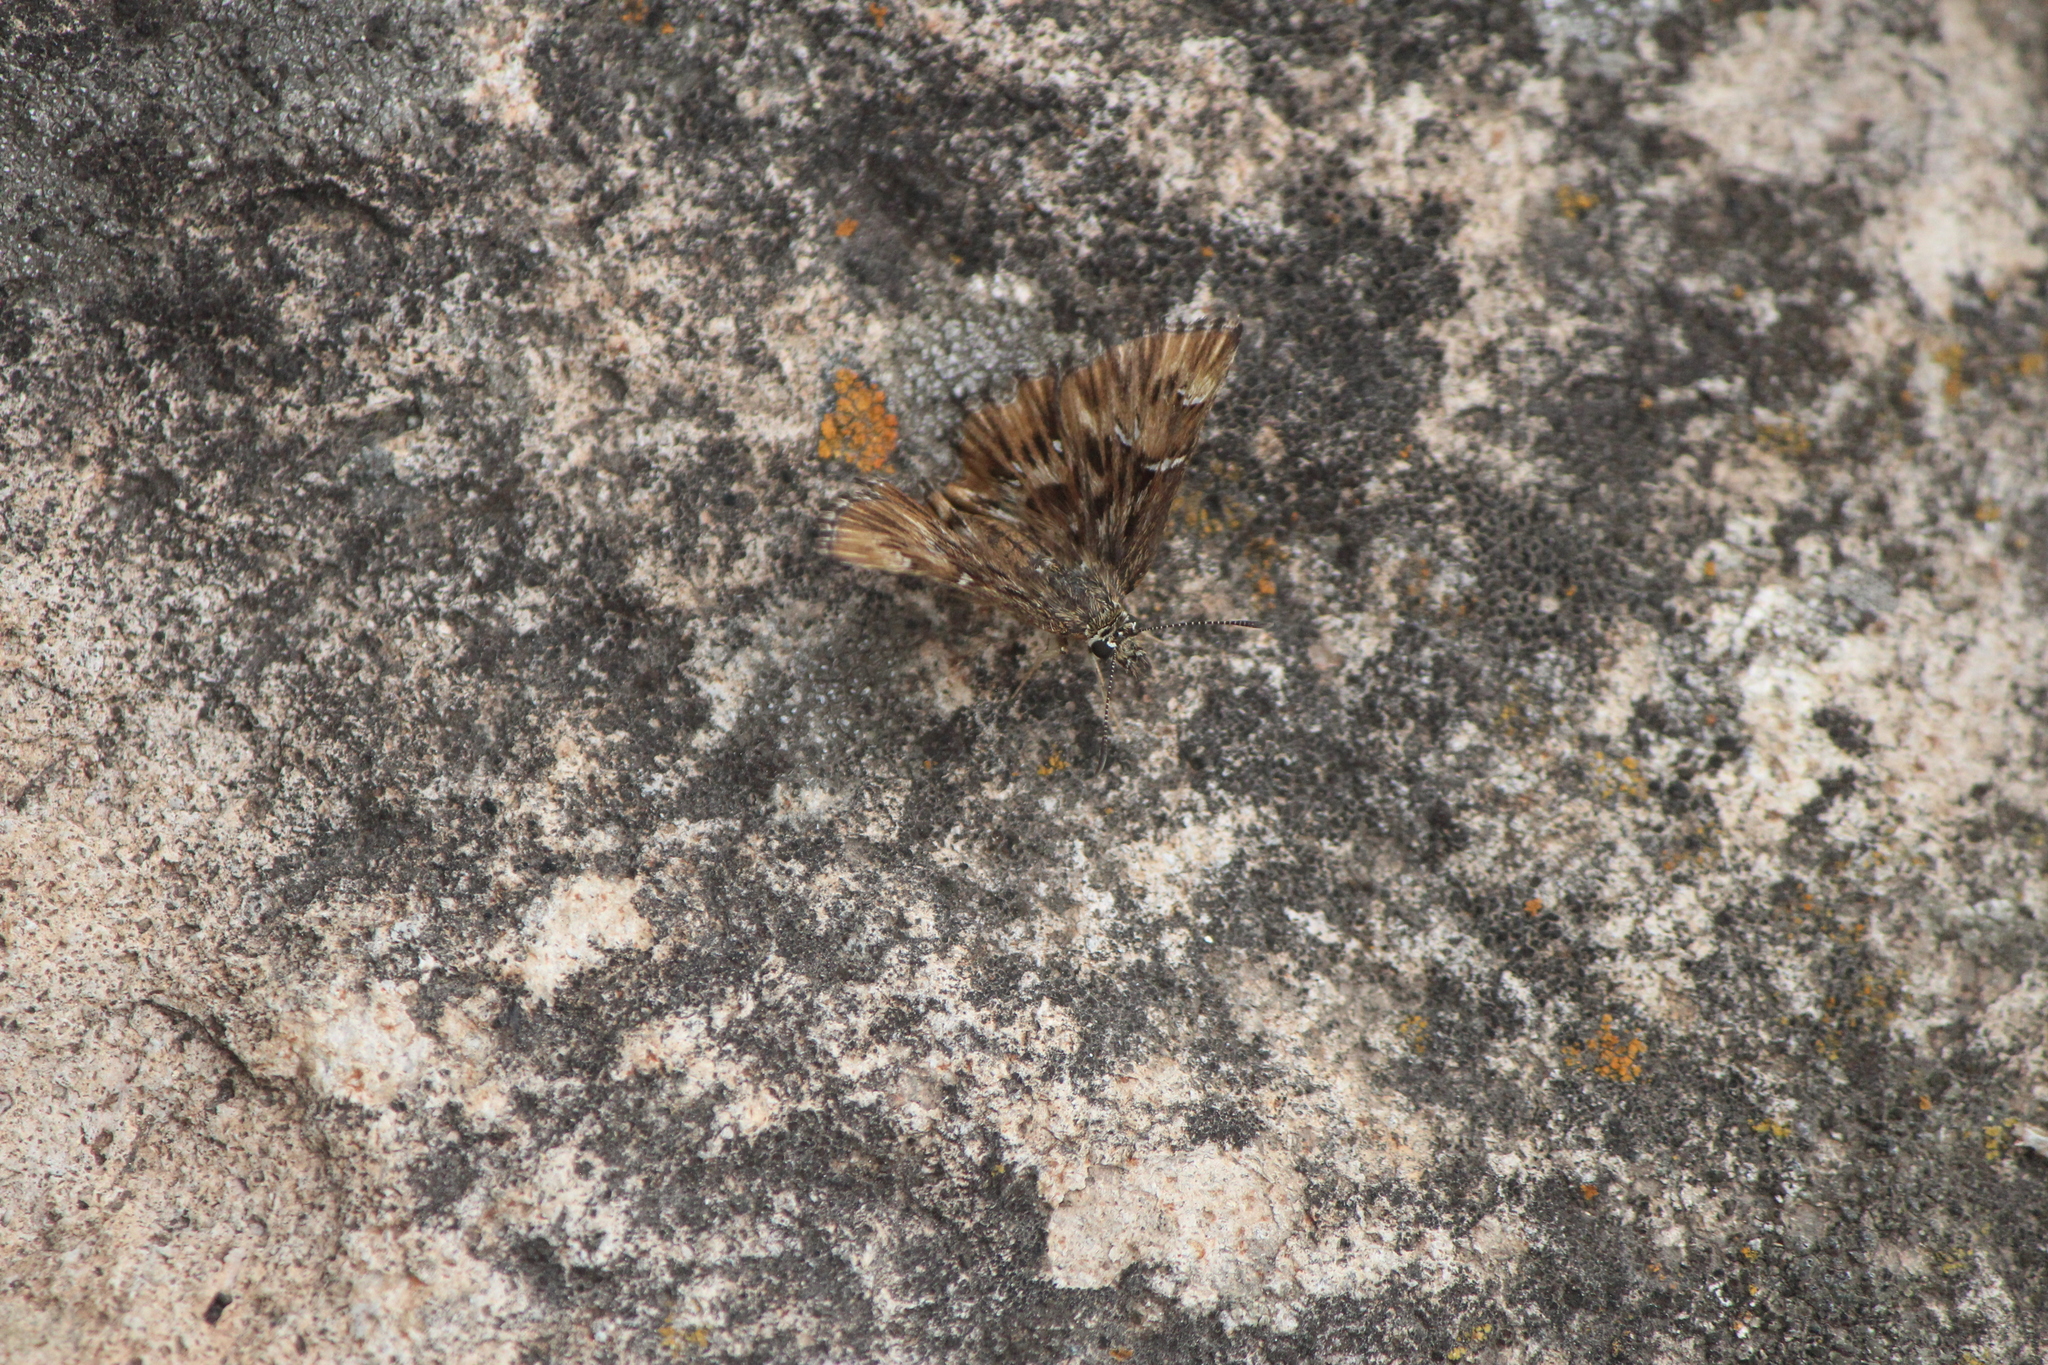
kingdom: Animalia
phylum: Arthropoda
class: Insecta
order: Lepidoptera
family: Hesperiidae
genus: Celotes
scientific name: Celotes spurcus
